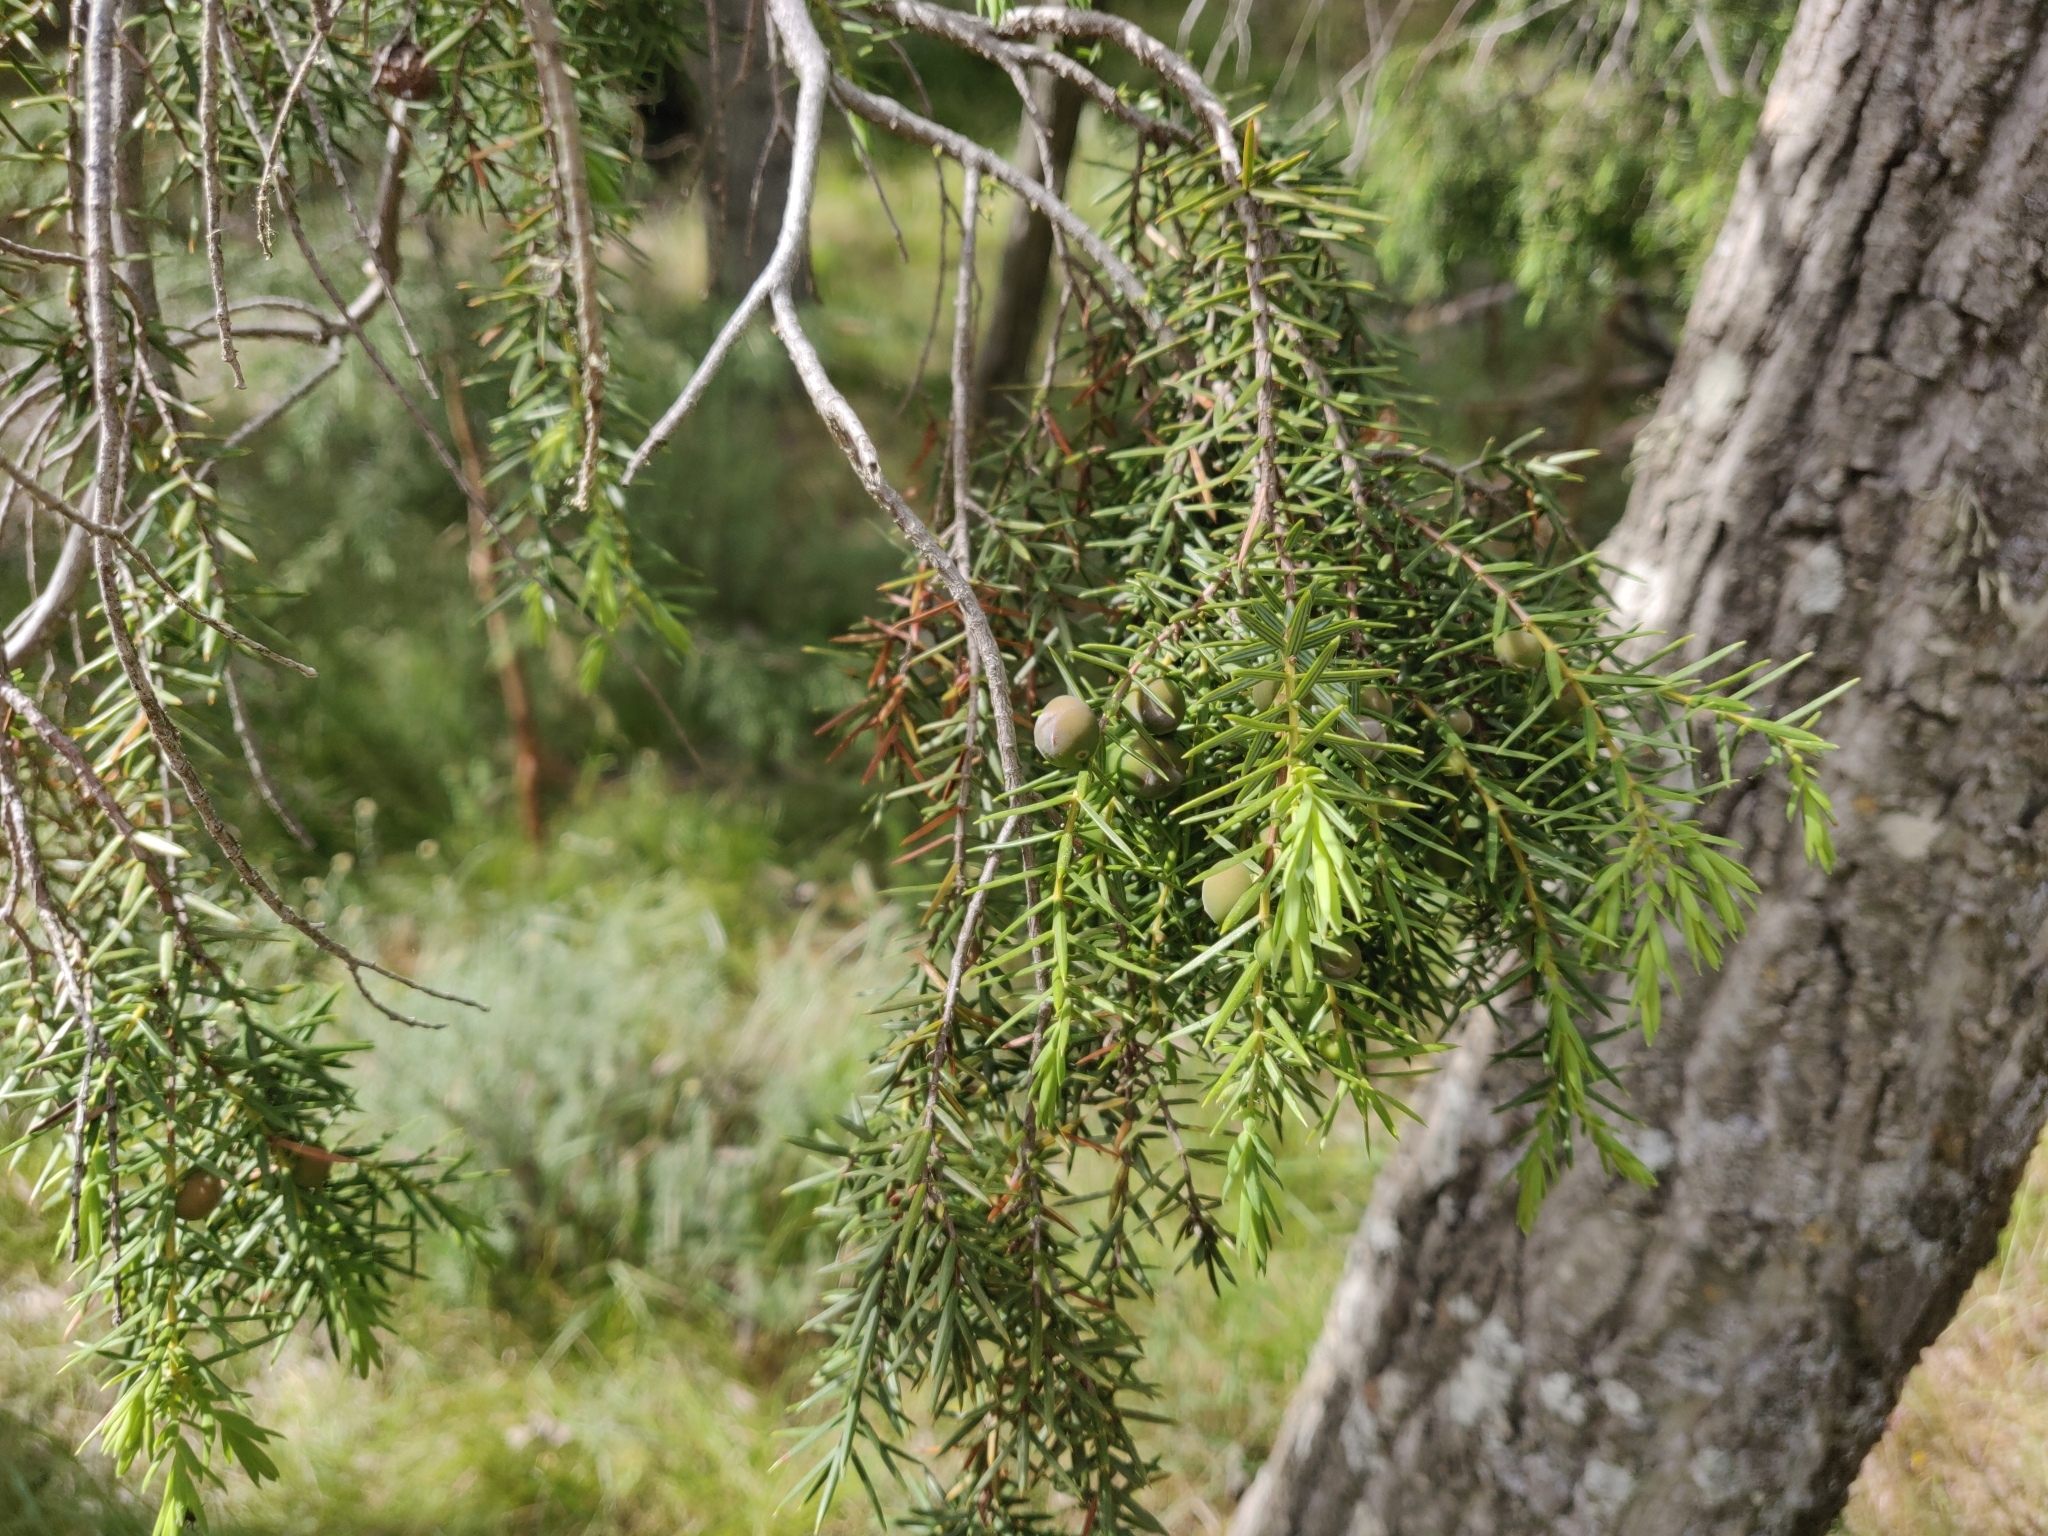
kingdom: Plantae
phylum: Tracheophyta
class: Pinopsida
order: Pinales
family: Cupressaceae
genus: Juniperus
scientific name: Juniperus oxycedrus
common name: Prickly juniper
